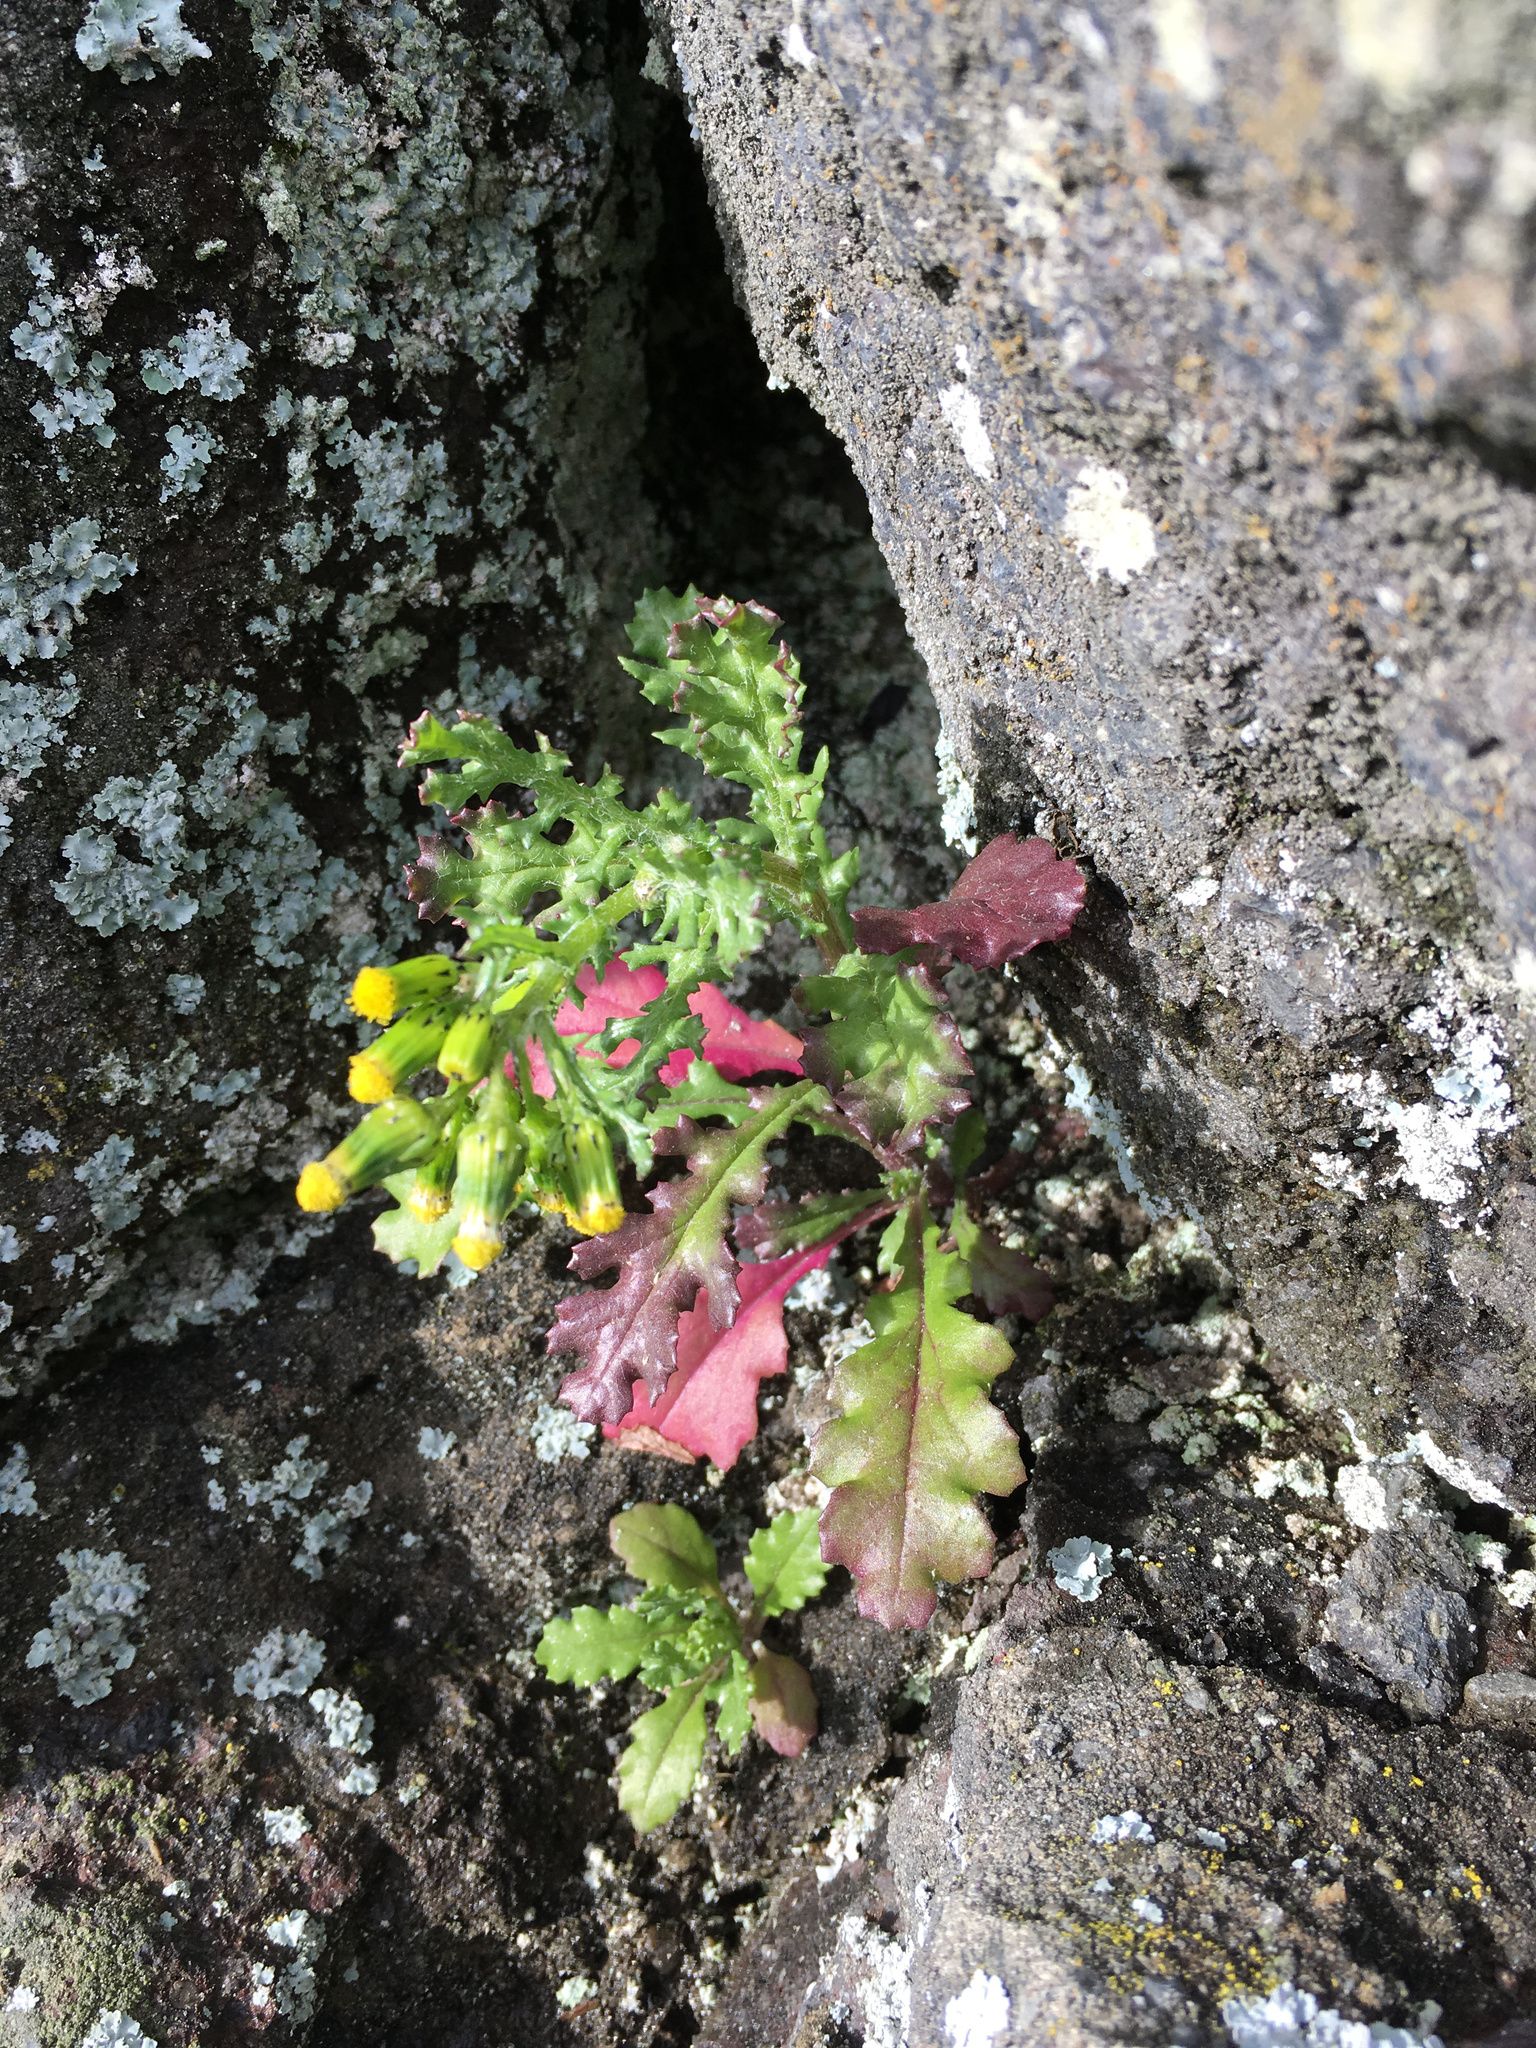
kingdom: Plantae
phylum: Tracheophyta
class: Magnoliopsida
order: Asterales
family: Asteraceae
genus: Senecio
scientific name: Senecio vulgaris
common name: Old-man-in-the-spring
